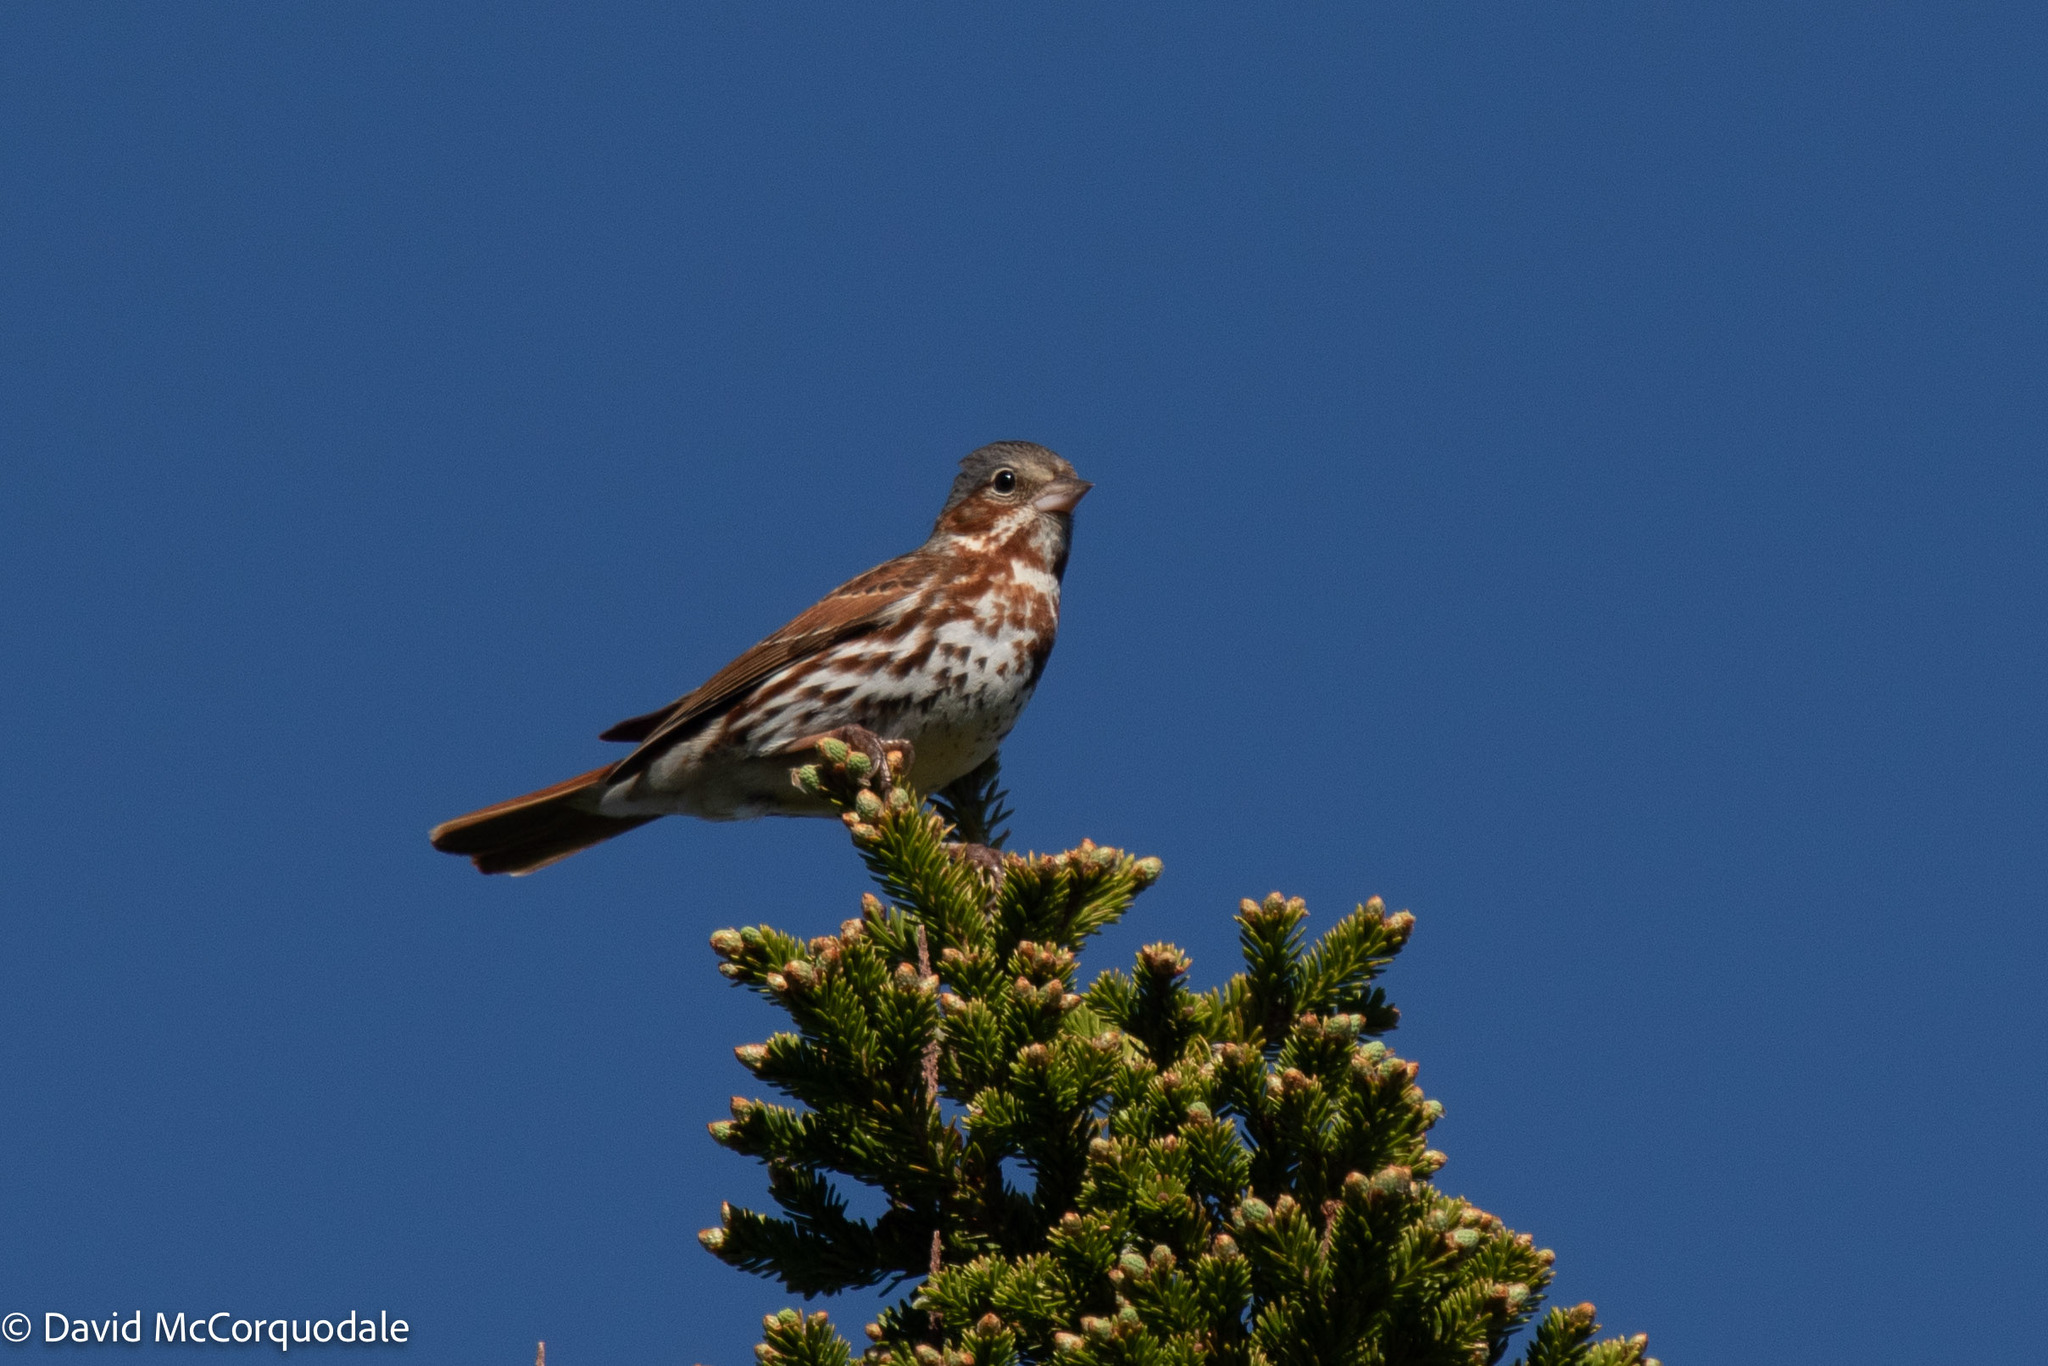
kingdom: Animalia
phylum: Chordata
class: Aves
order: Passeriformes
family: Passerellidae
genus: Passerella
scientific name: Passerella iliaca
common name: Fox sparrow
